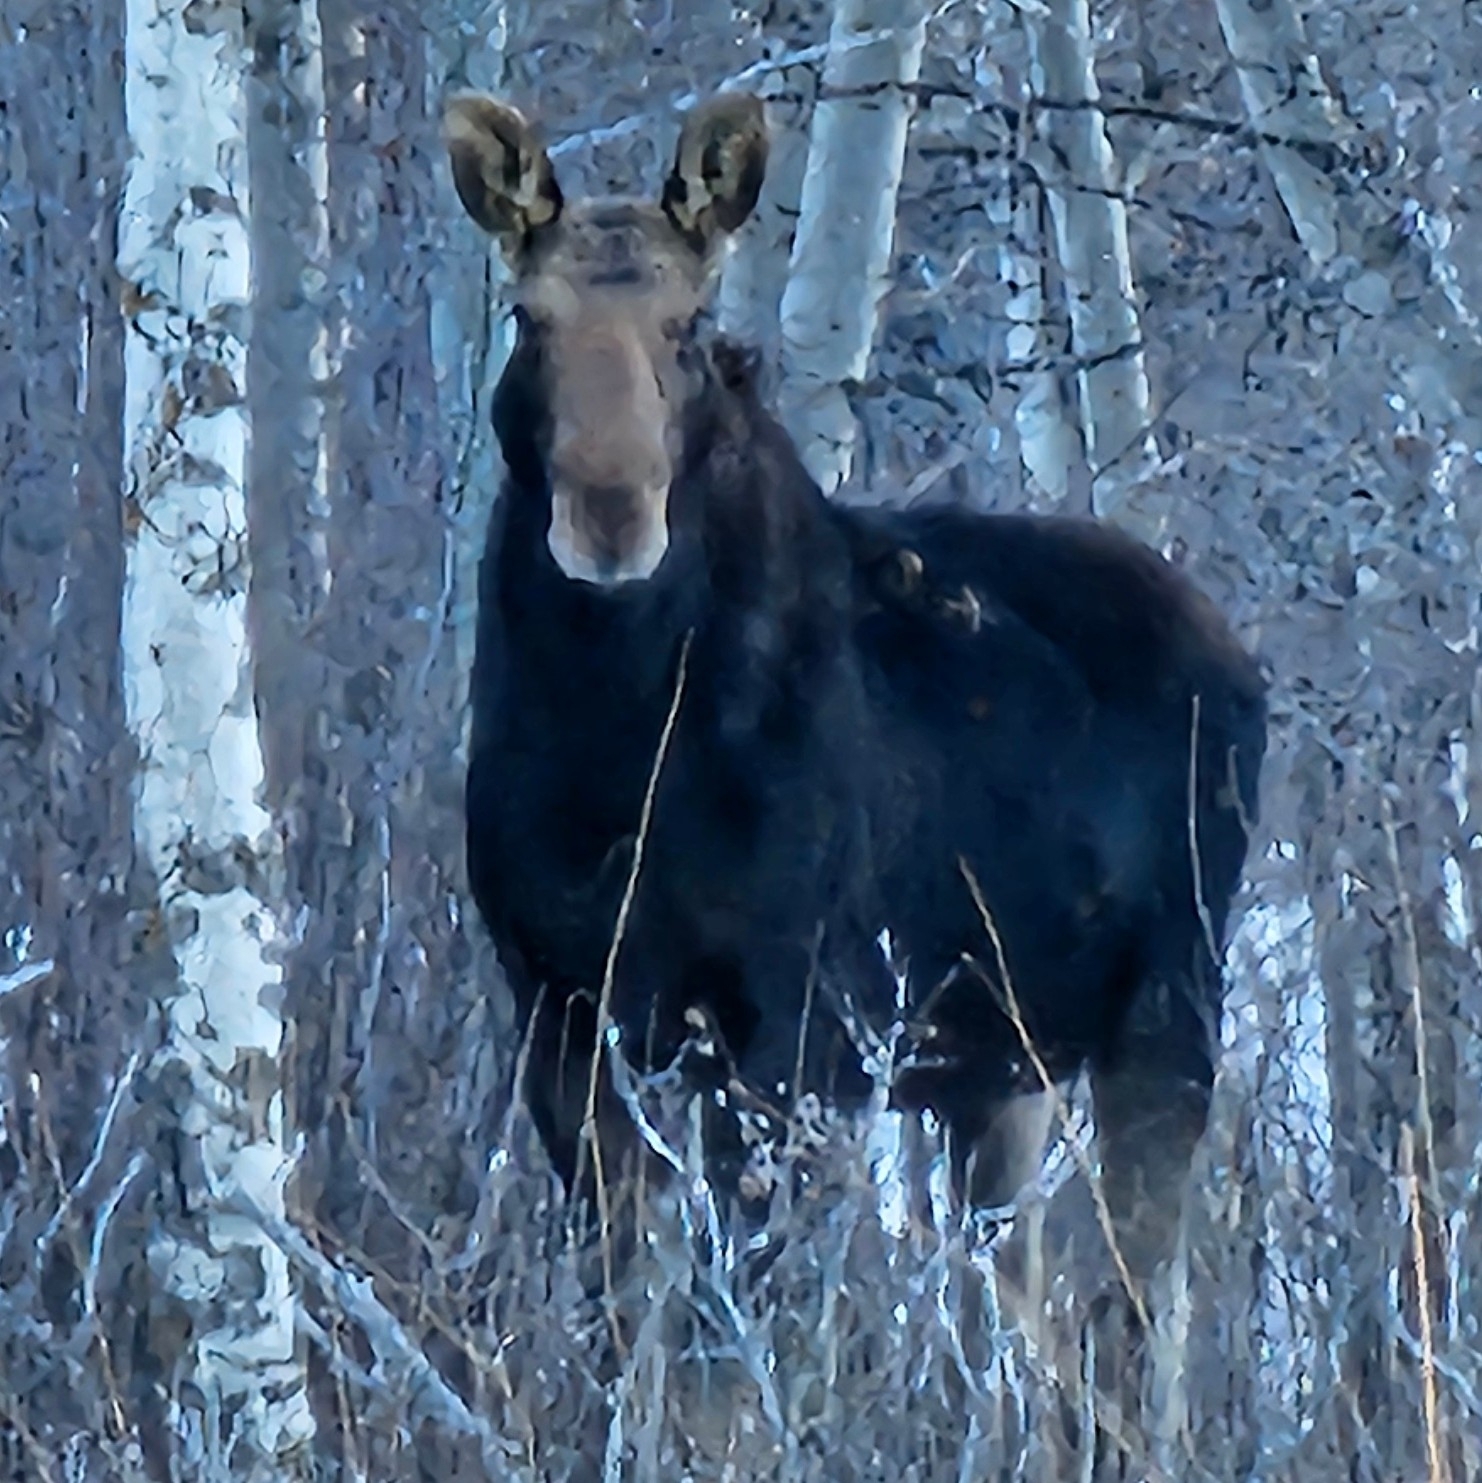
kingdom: Animalia
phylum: Chordata
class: Mammalia
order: Artiodactyla
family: Cervidae
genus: Alces
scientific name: Alces alces
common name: Moose
